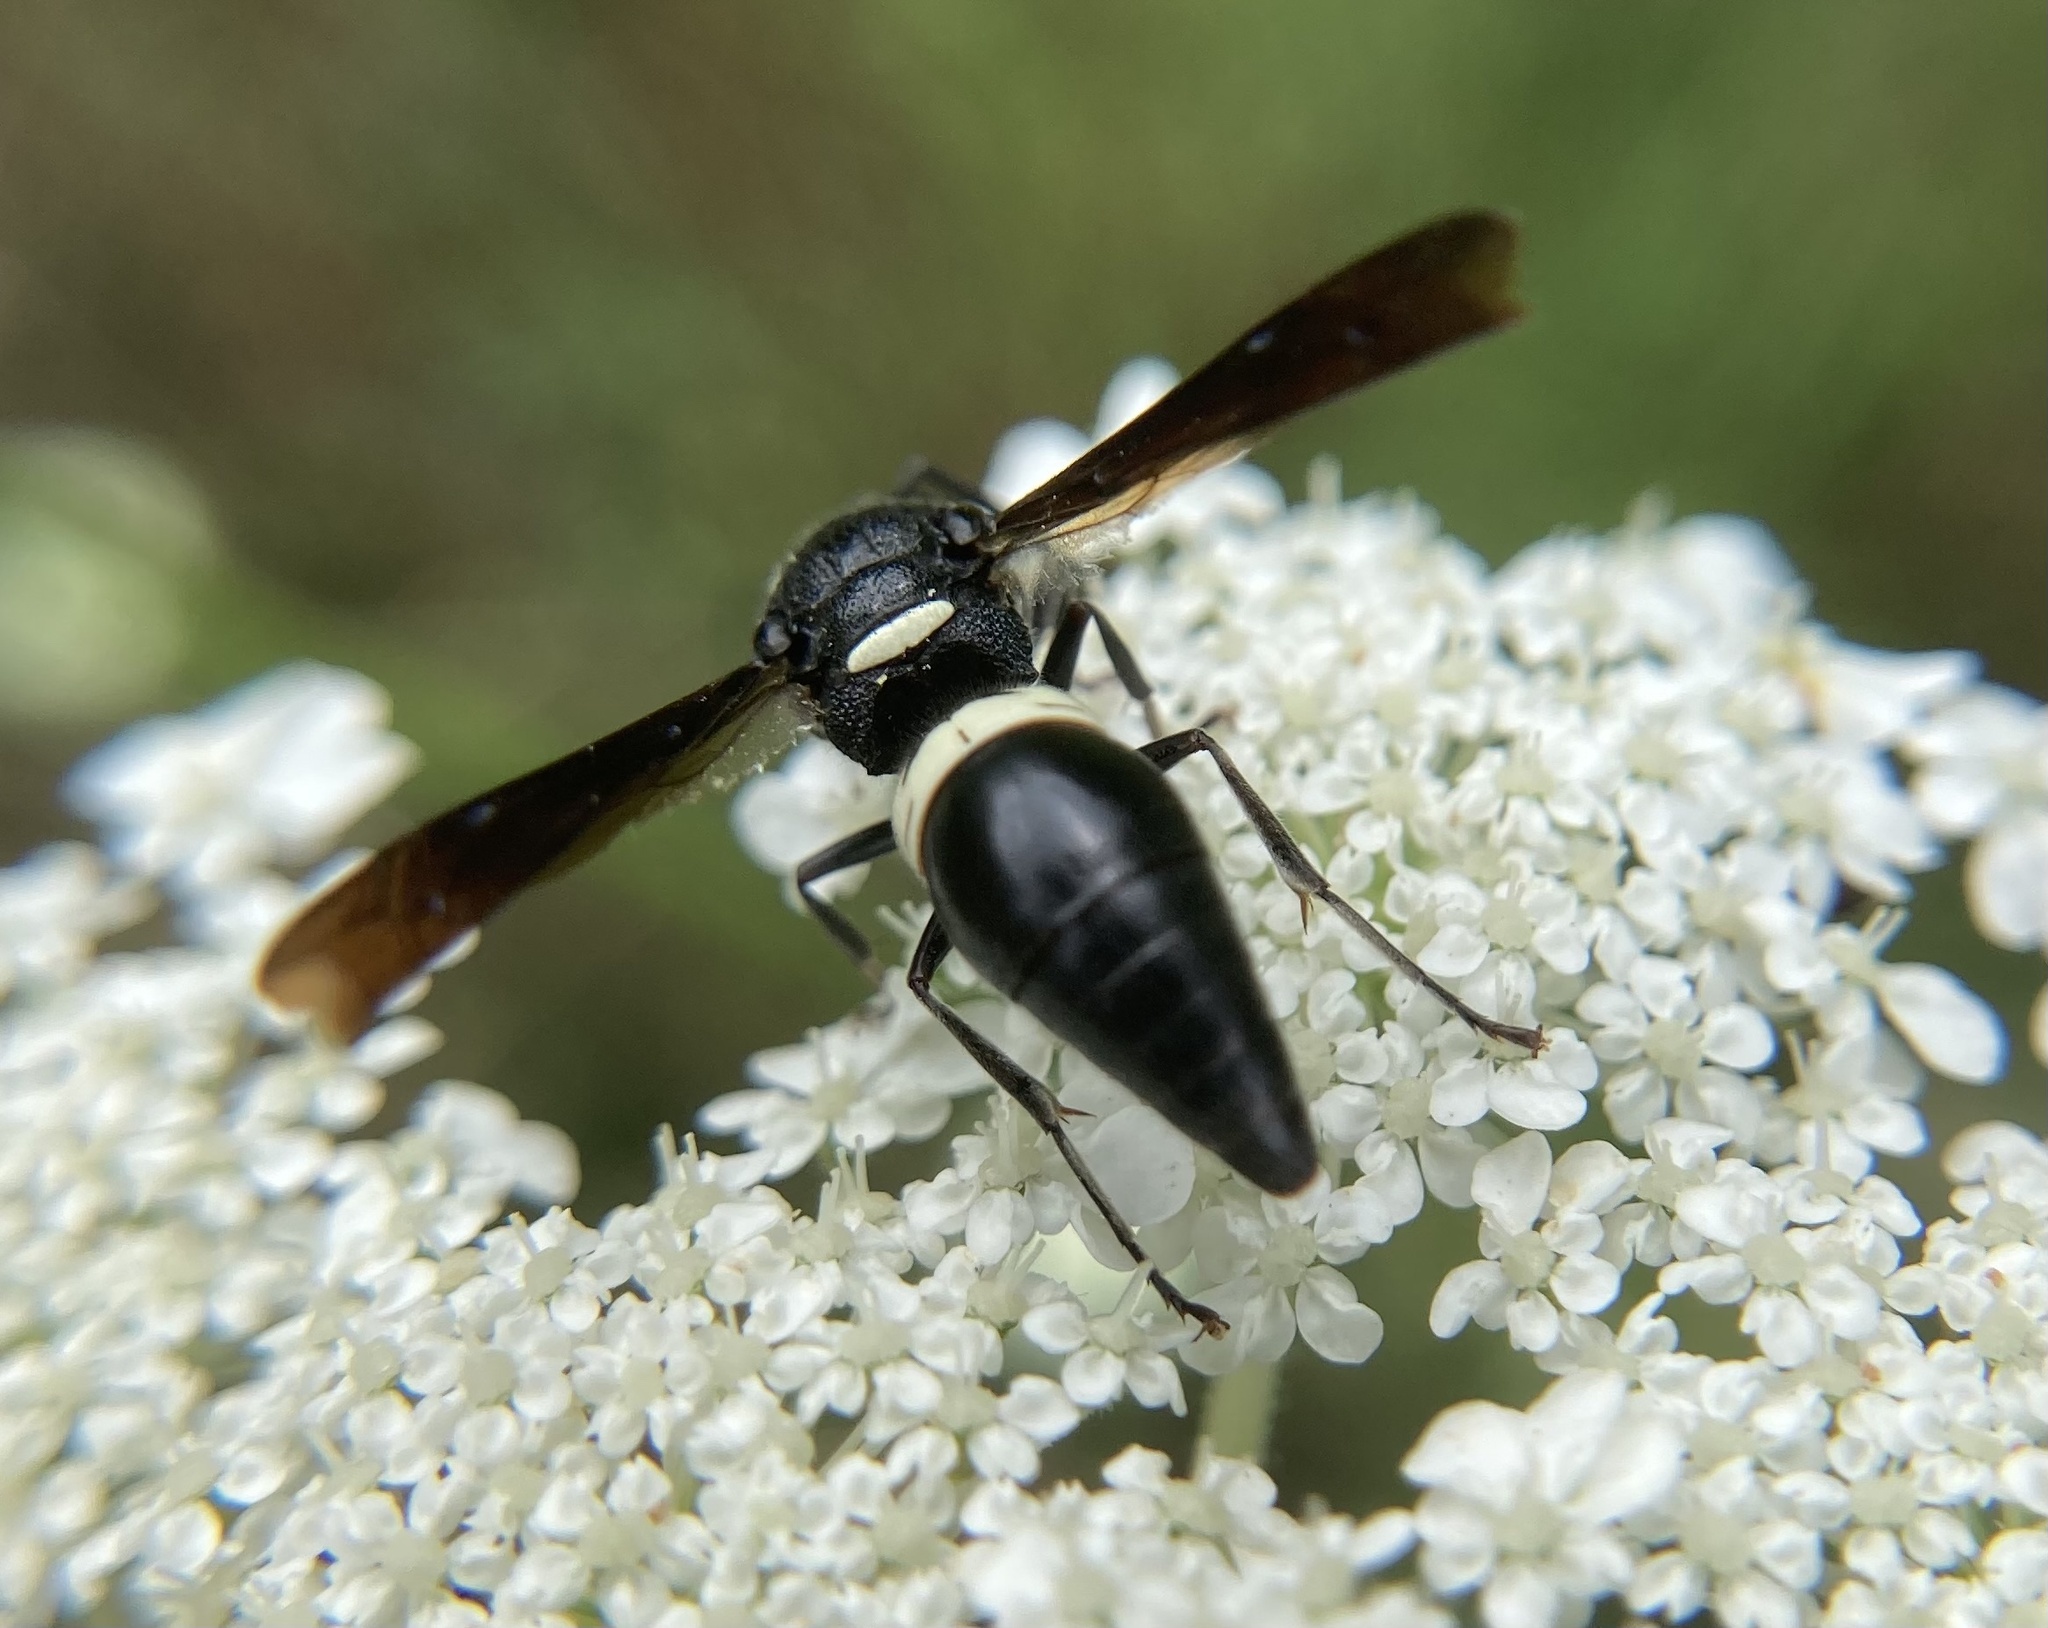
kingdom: Animalia
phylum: Arthropoda
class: Insecta
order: Hymenoptera
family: Eumenidae
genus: Monobia
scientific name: Monobia quadridens
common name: Four-toothed mason wasp
